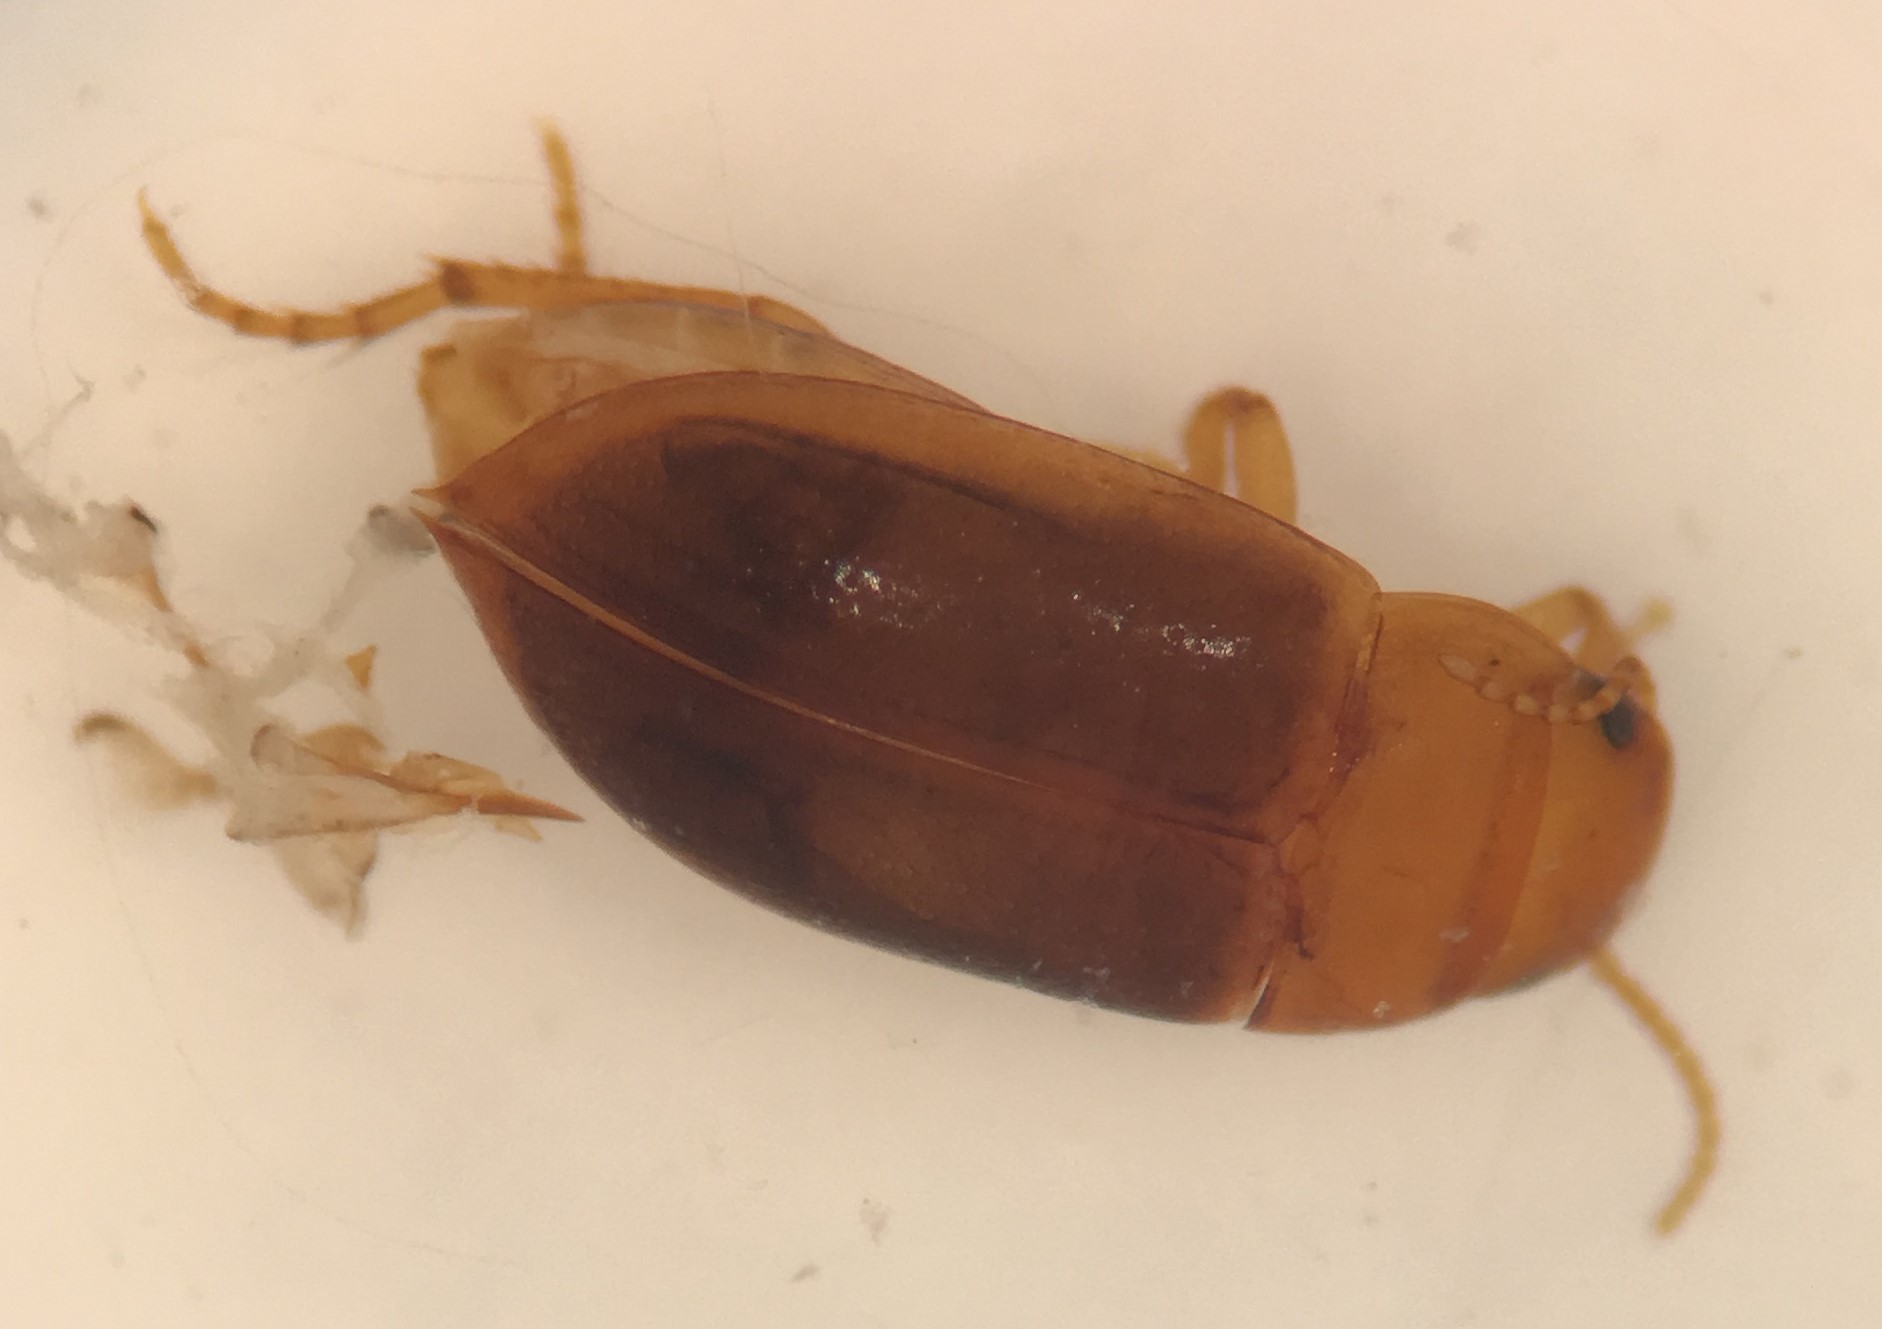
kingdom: Animalia
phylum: Arthropoda
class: Insecta
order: Coleoptera
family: Dytiscidae
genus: Celina
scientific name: Celina angustata
